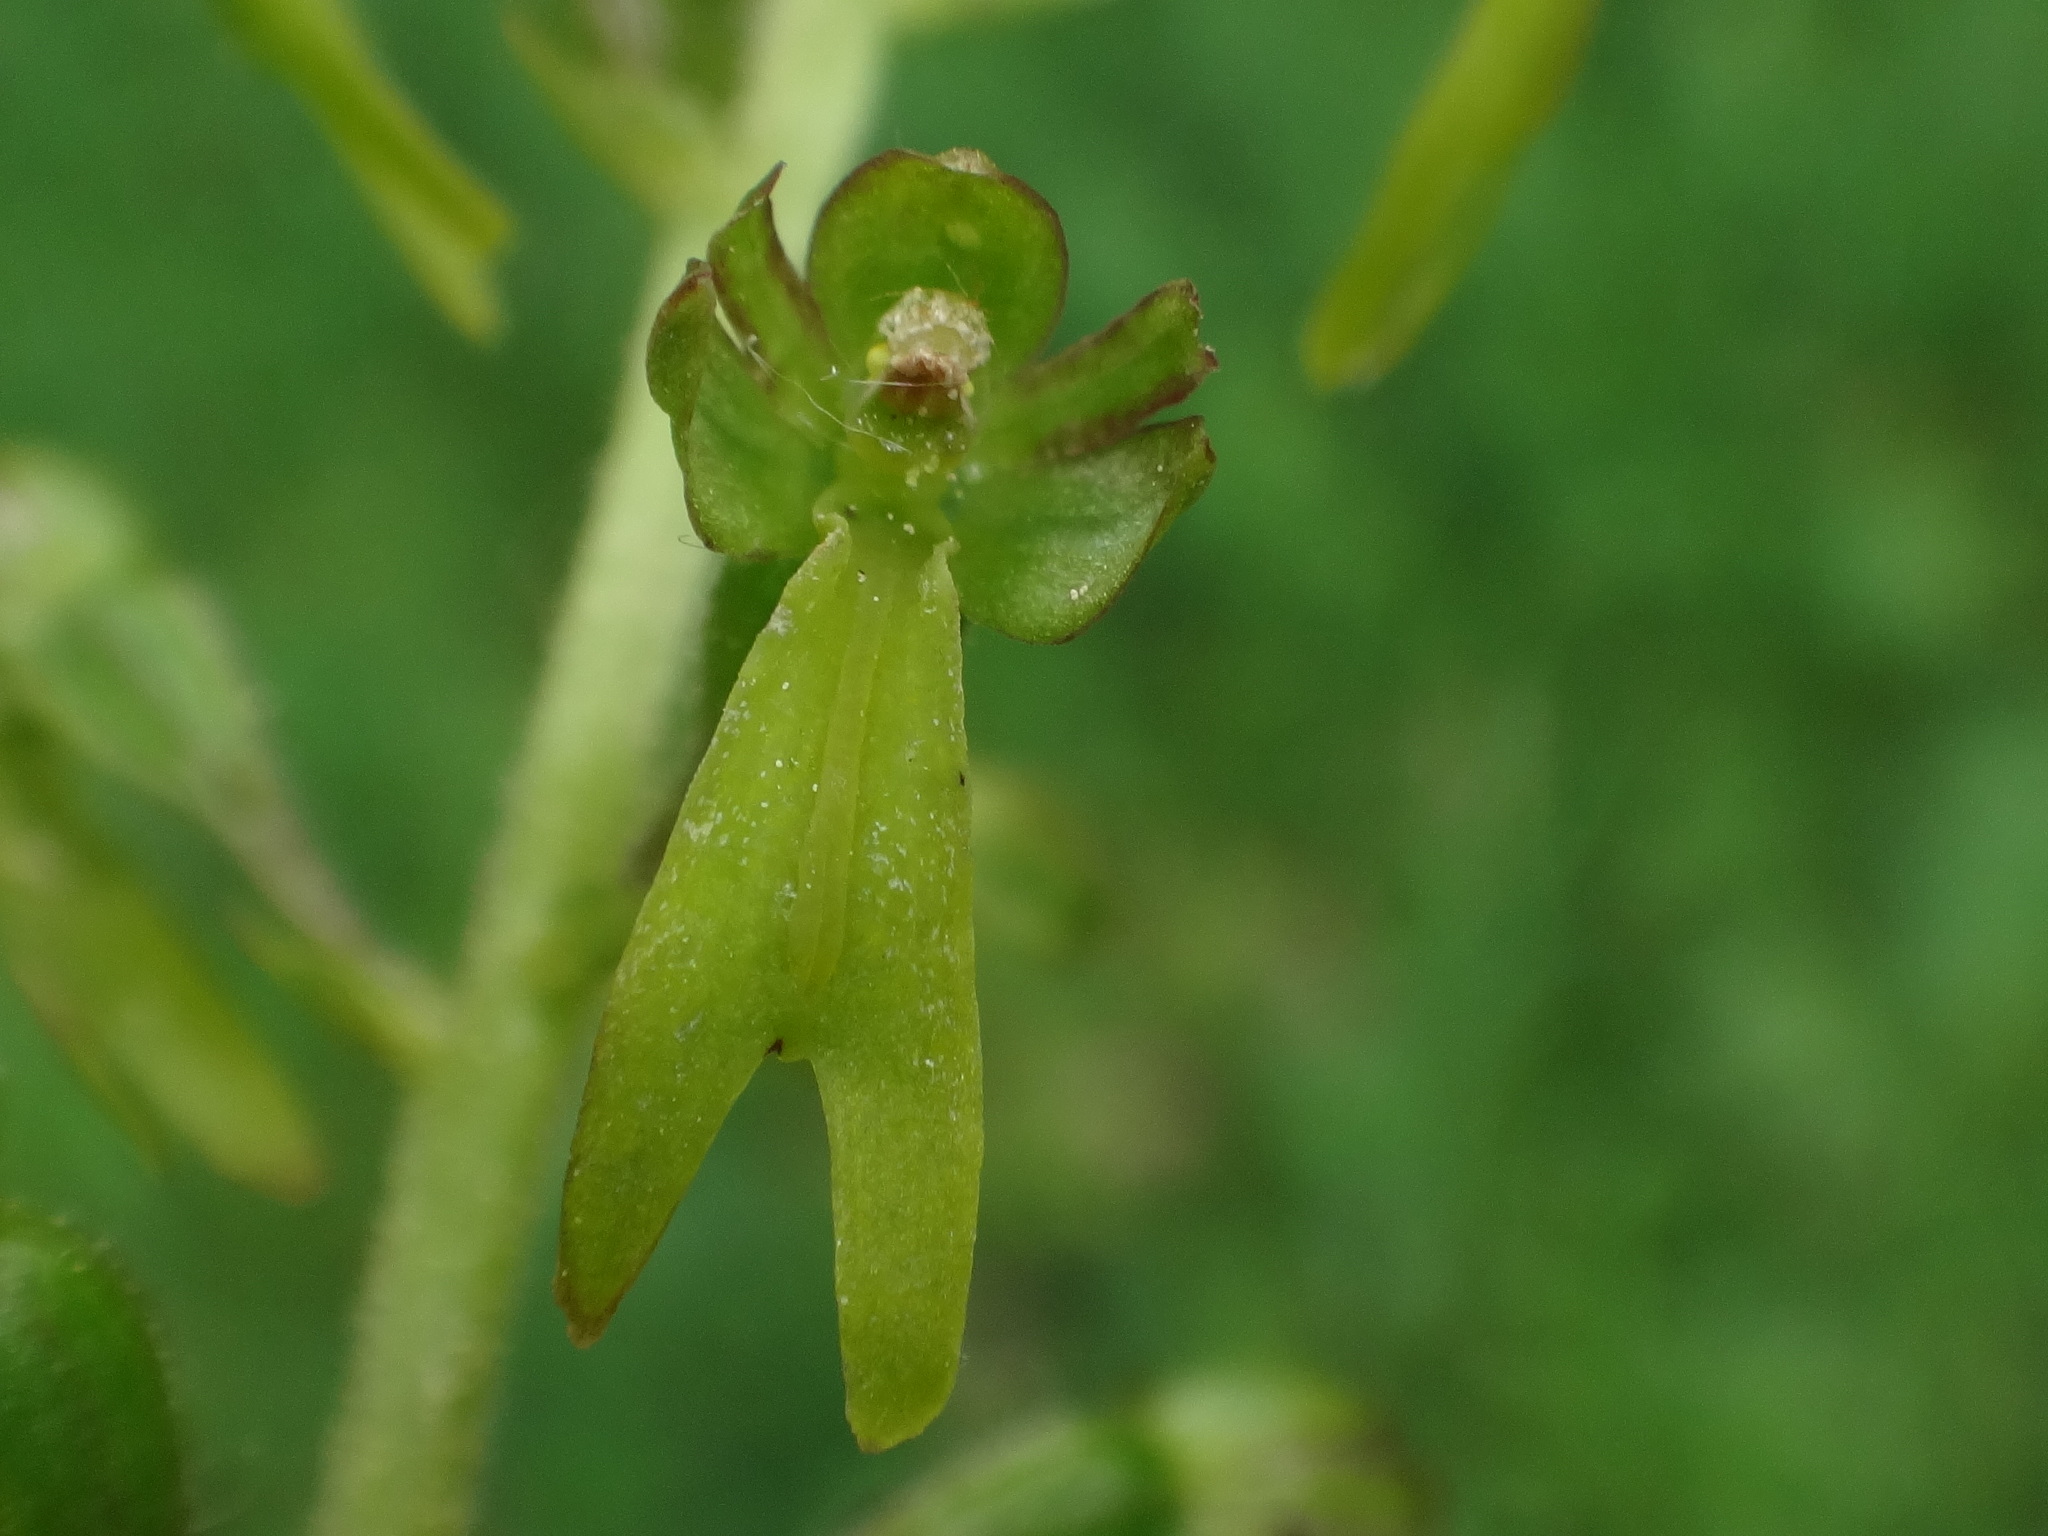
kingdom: Plantae
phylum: Tracheophyta
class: Liliopsida
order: Asparagales
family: Orchidaceae
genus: Neottia
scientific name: Neottia ovata
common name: Common twayblade
